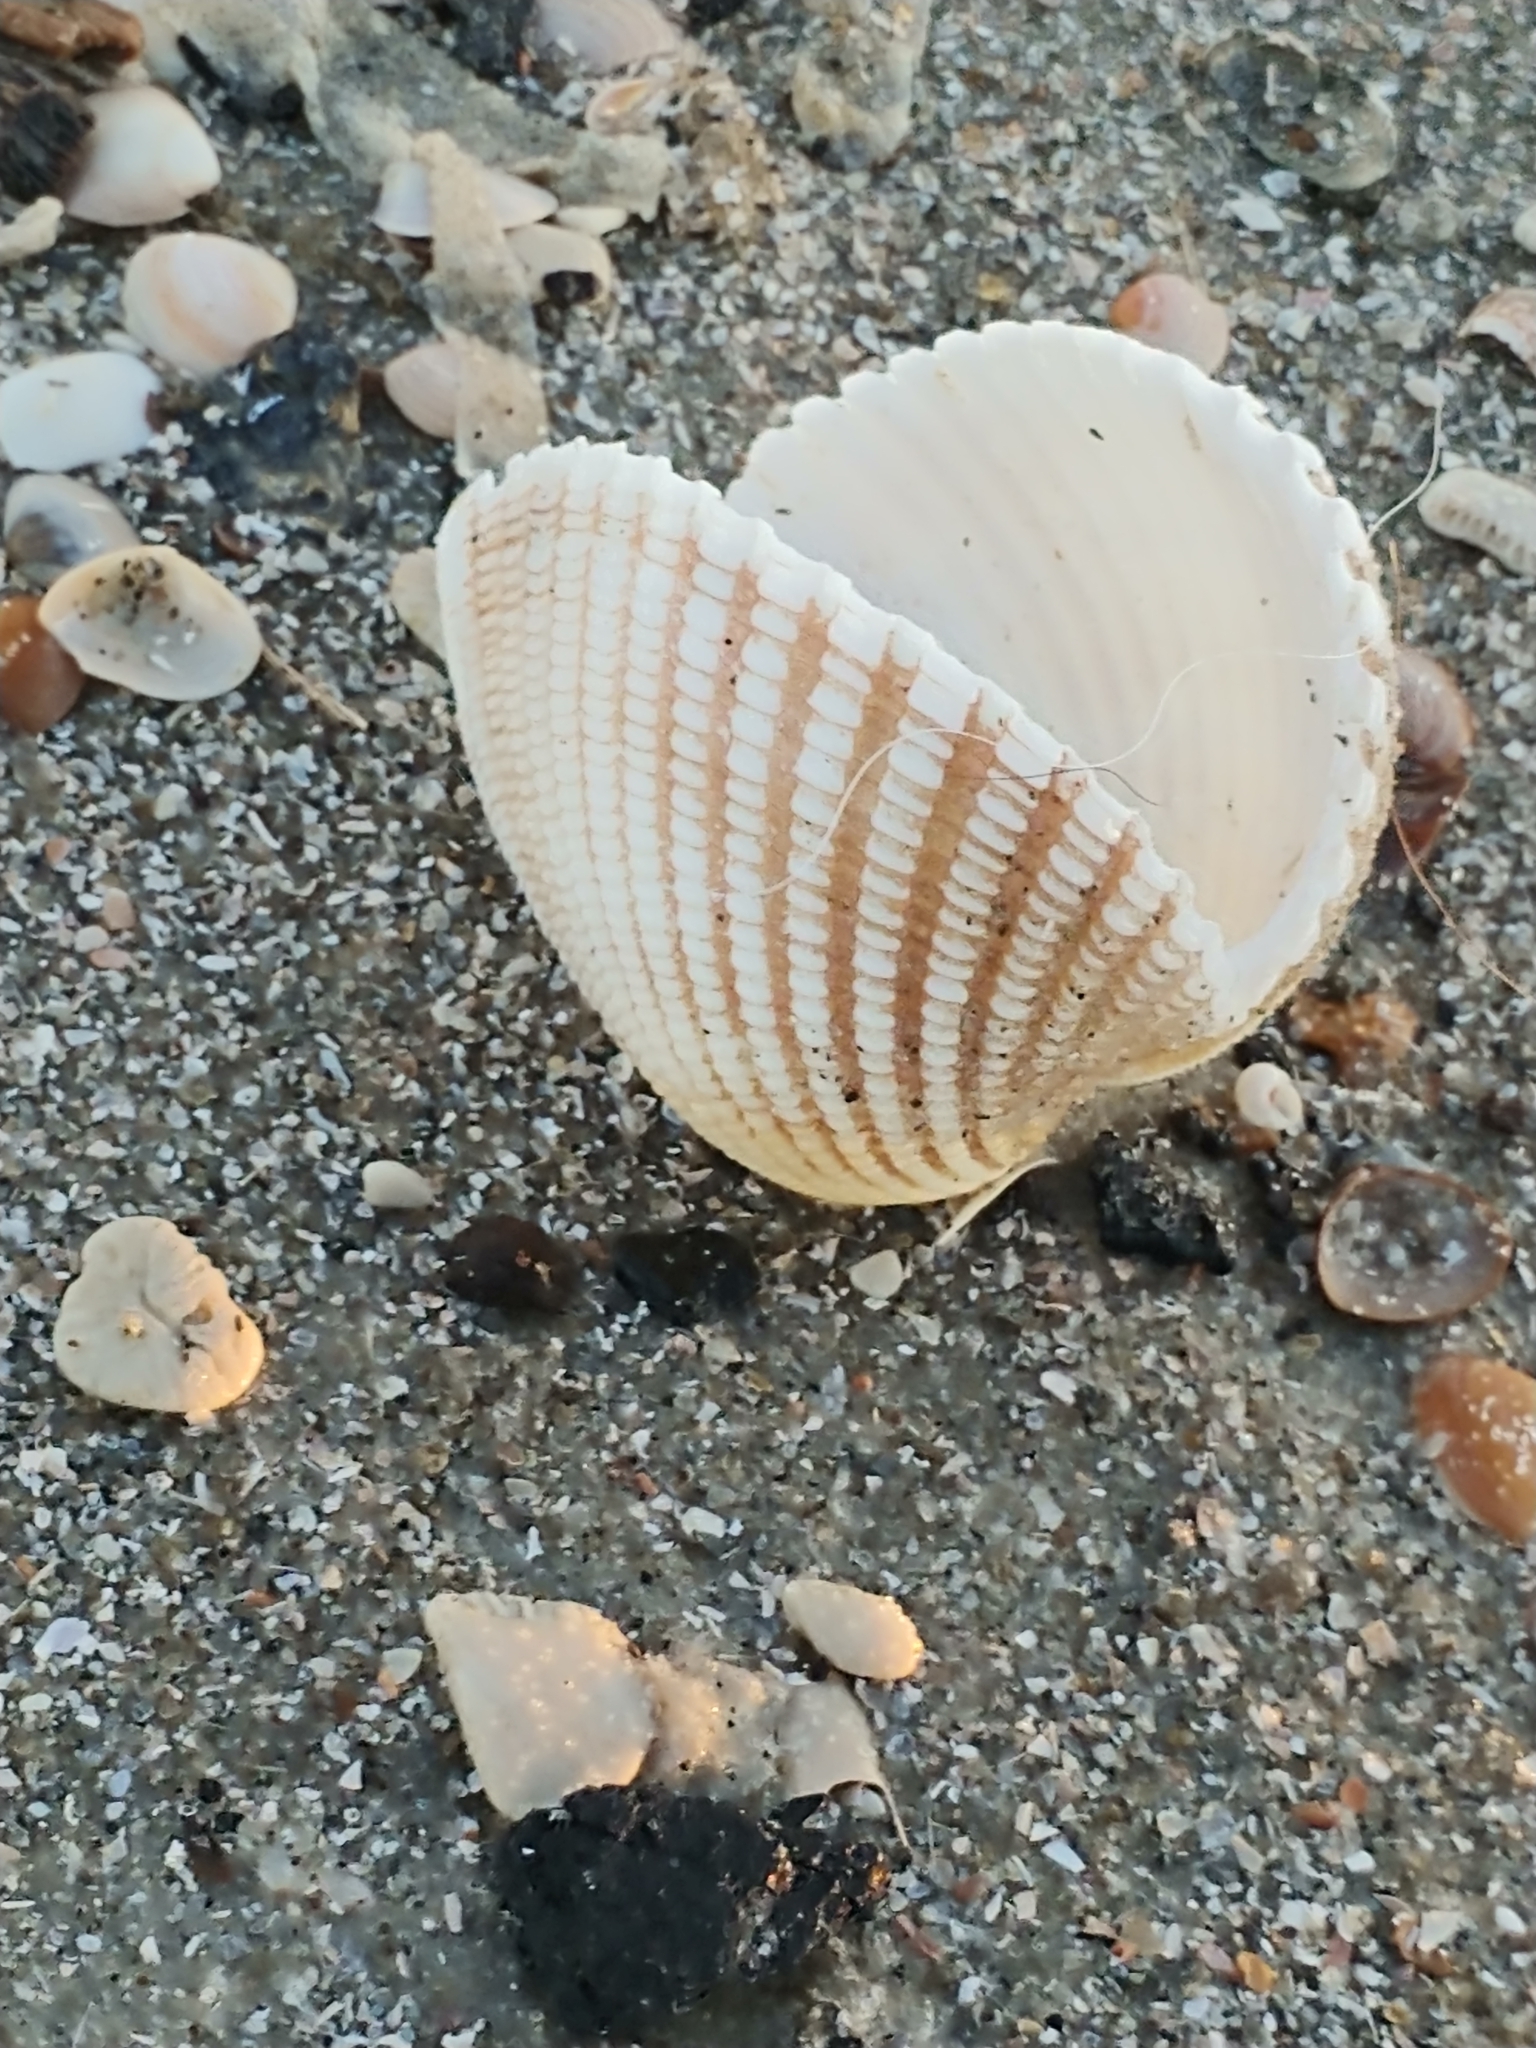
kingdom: Animalia
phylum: Mollusca
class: Bivalvia
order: Arcida
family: Arcidae
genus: Anadara
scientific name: Anadara brasiliana
